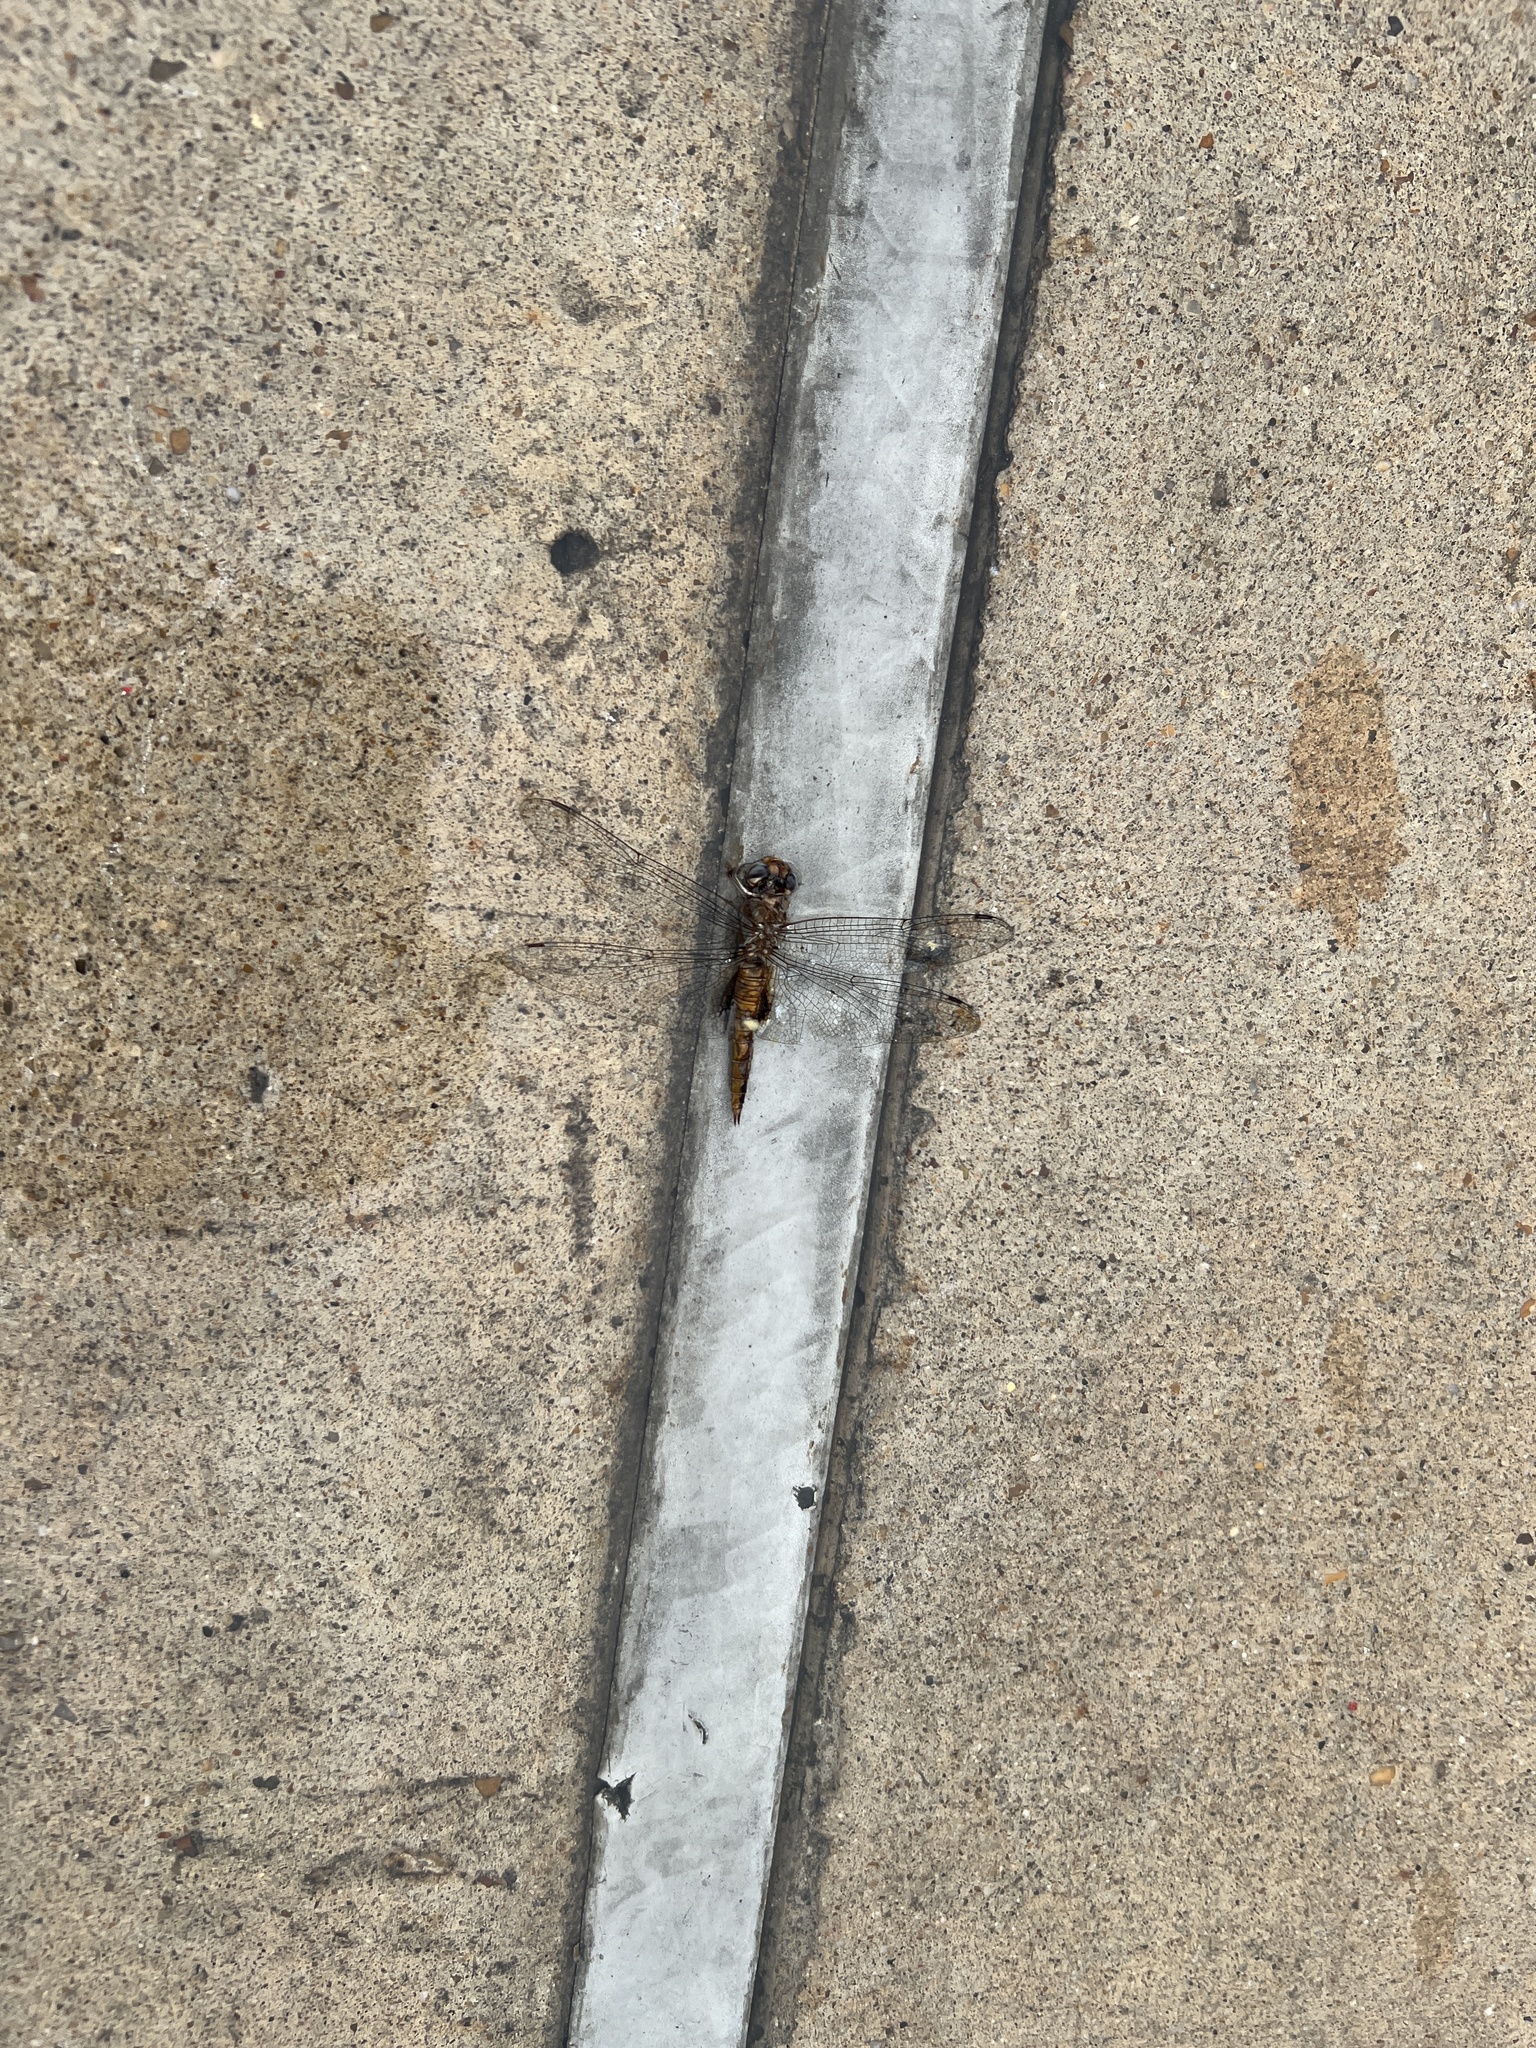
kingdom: Animalia
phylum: Arthropoda
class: Insecta
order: Odonata
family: Libellulidae
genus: Pantala
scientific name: Pantala hymenaea
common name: Spot-winged glider
